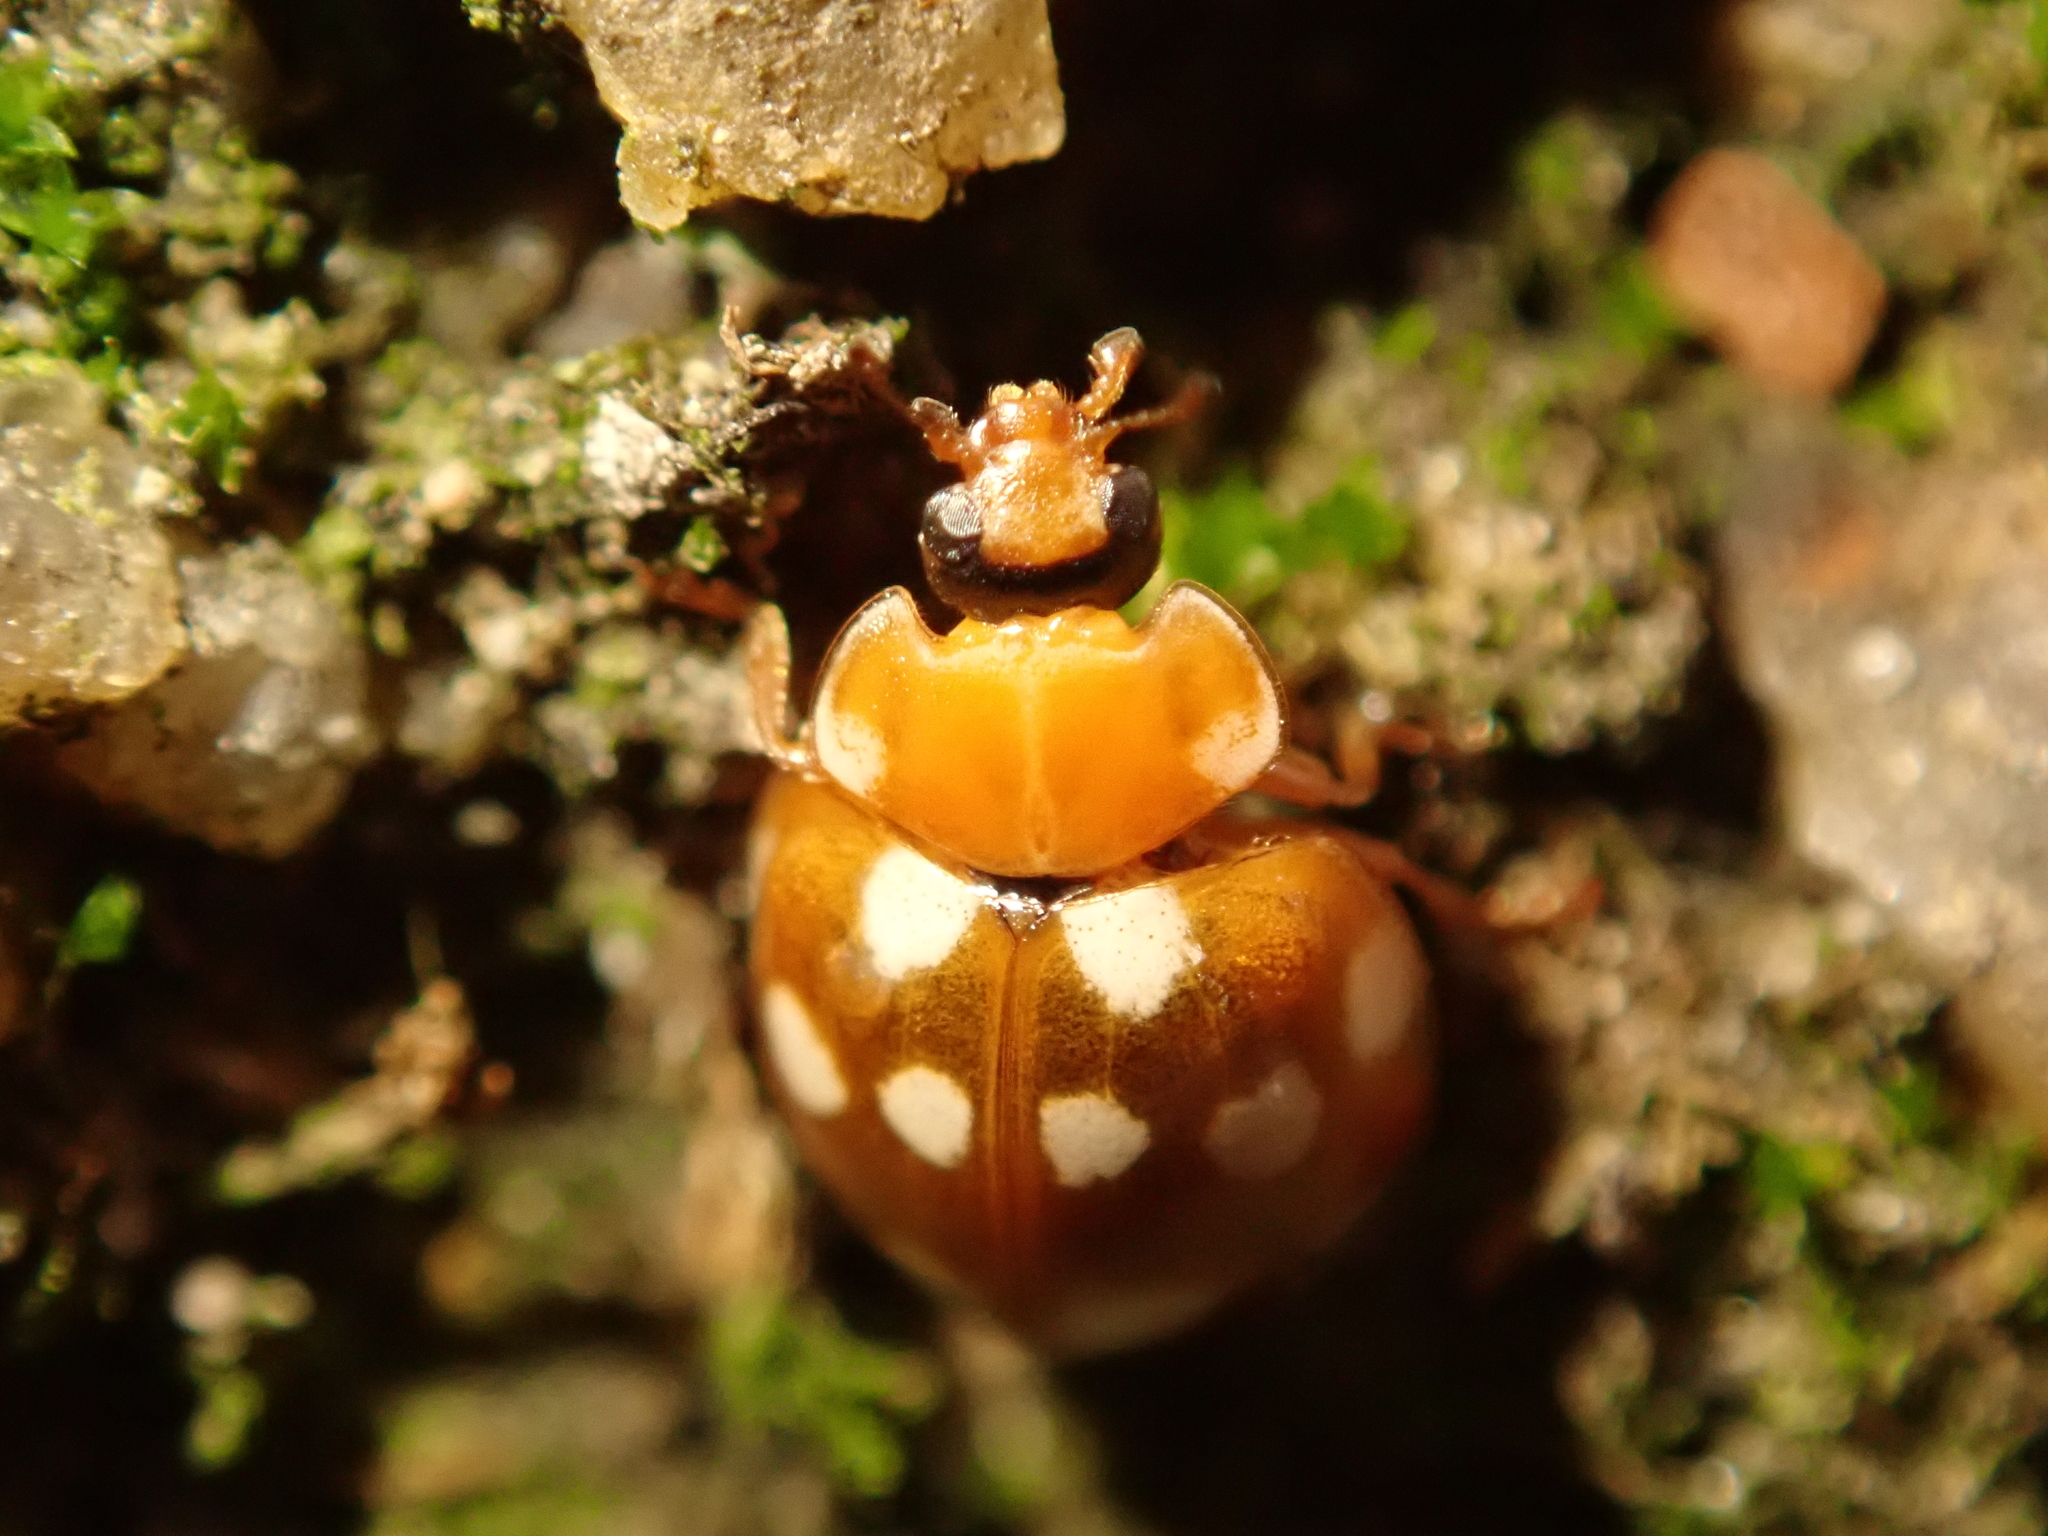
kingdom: Animalia
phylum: Arthropoda
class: Insecta
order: Coleoptera
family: Coccinellidae
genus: Calvia
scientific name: Calvia quatuordecimguttata
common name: Cream-spot ladybird
